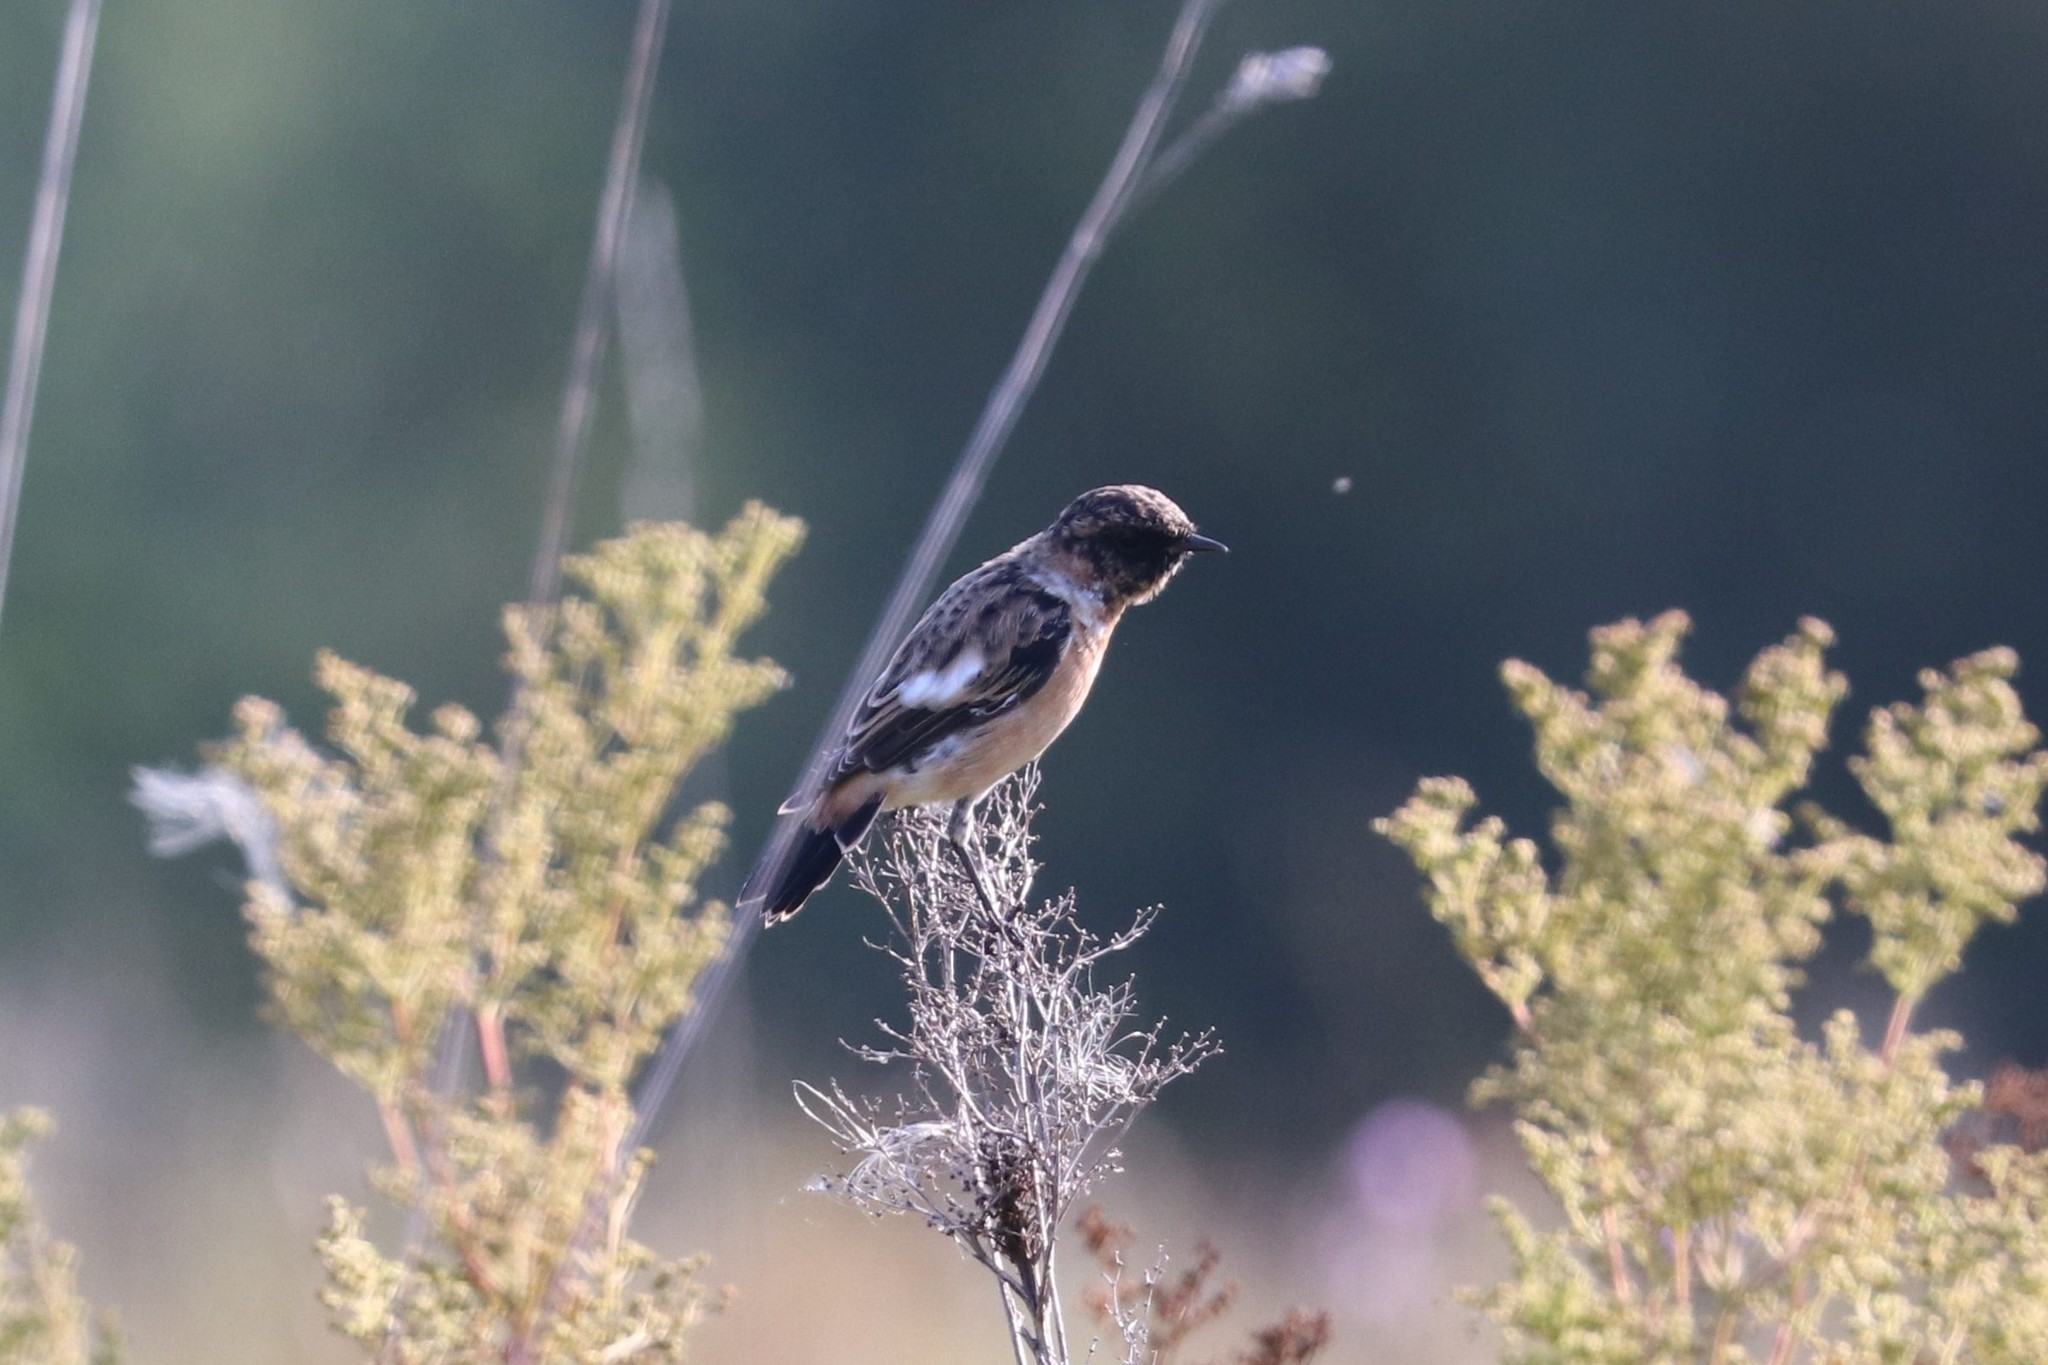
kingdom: Animalia
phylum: Chordata
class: Aves
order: Passeriformes
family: Muscicapidae
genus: Saxicola
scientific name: Saxicola maurus
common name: Siberian stonechat
